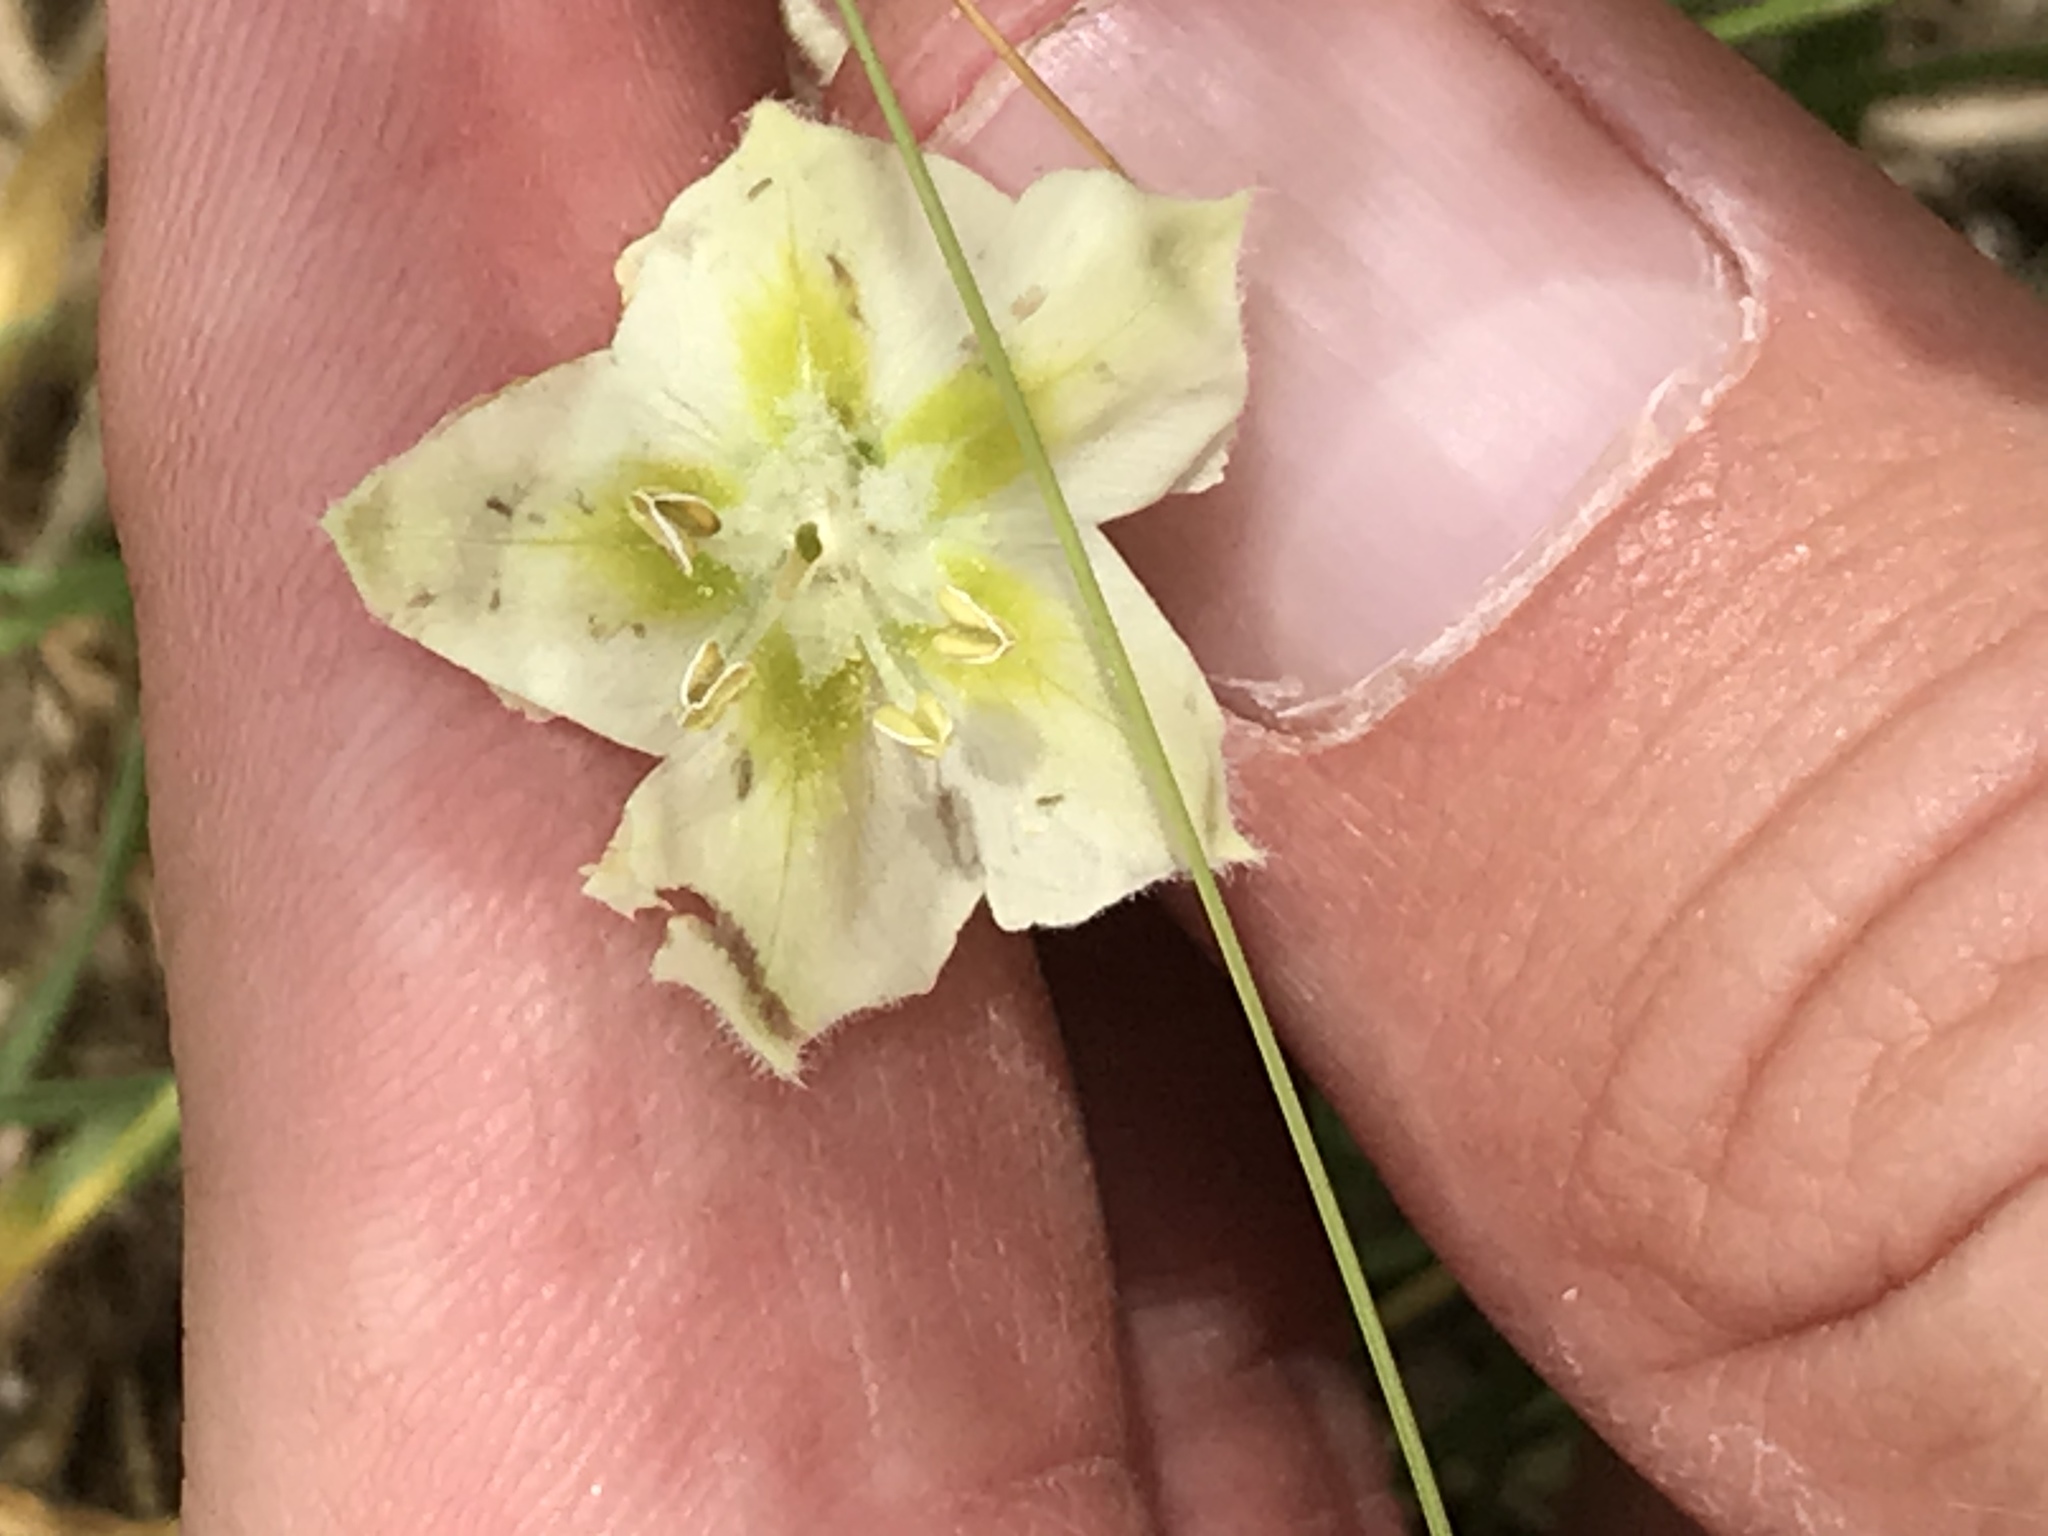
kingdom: Plantae
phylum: Tracheophyta
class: Magnoliopsida
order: Solanales
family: Solanaceae
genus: Chamaesaracha
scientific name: Chamaesaracha
